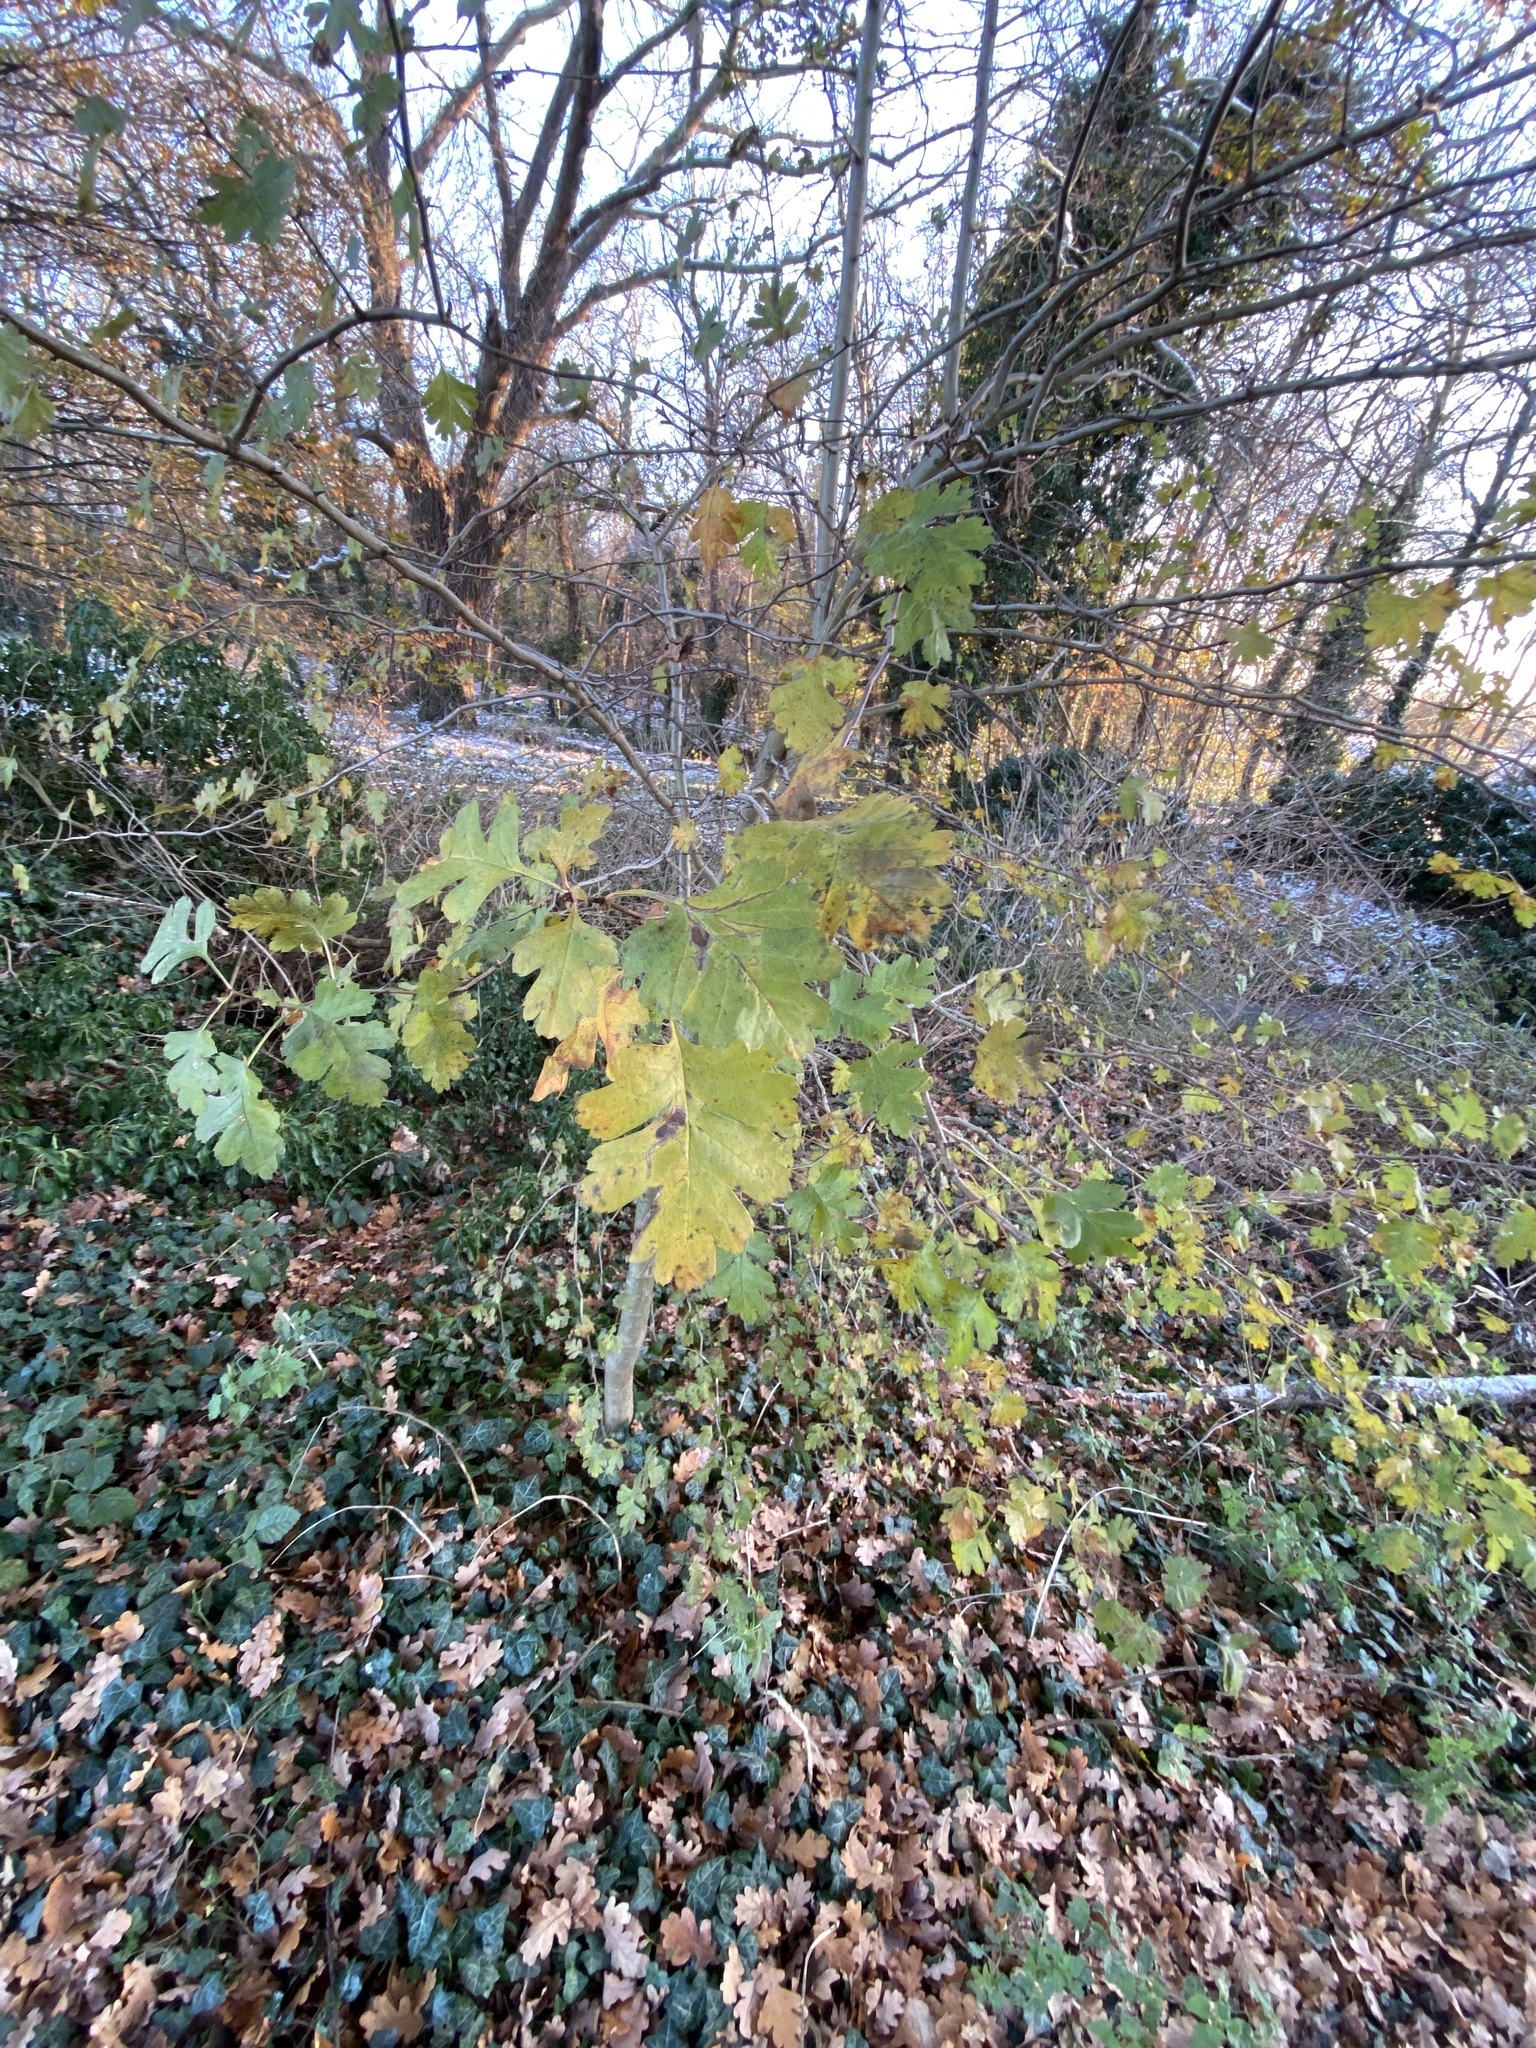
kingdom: Plantae
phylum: Tracheophyta
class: Magnoliopsida
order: Rosales
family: Rosaceae
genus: Crataegus
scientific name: Crataegus monogyna
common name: Hawthorn
